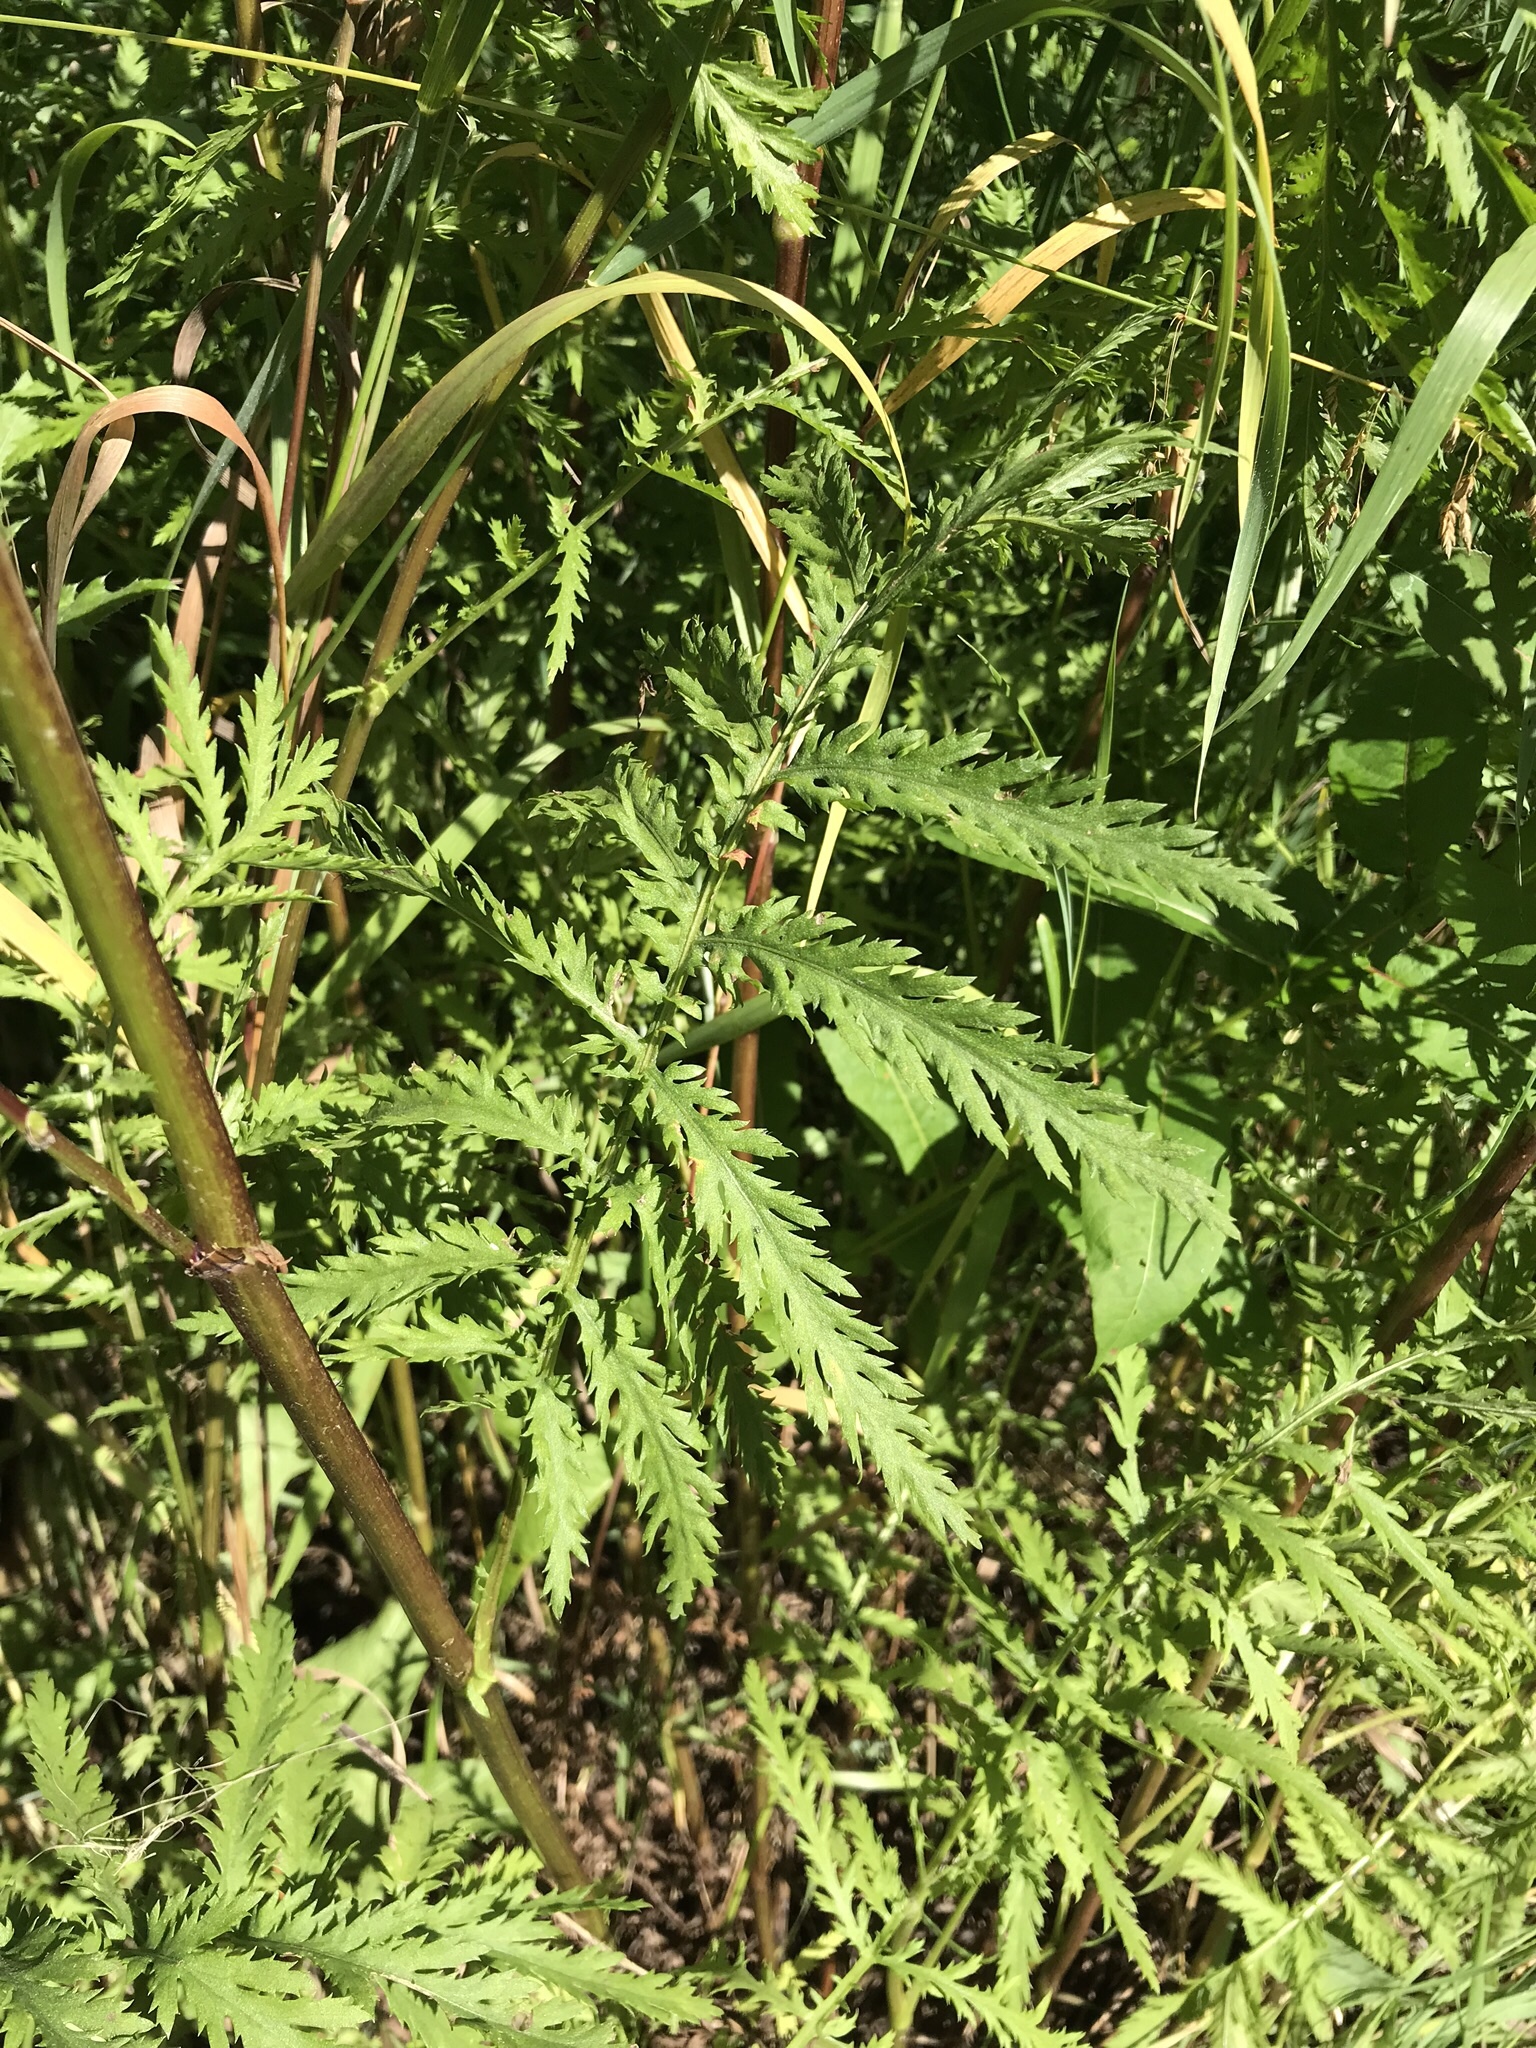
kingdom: Plantae
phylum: Tracheophyta
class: Magnoliopsida
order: Asterales
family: Asteraceae
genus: Tanacetum
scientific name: Tanacetum vulgare
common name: Common tansy
